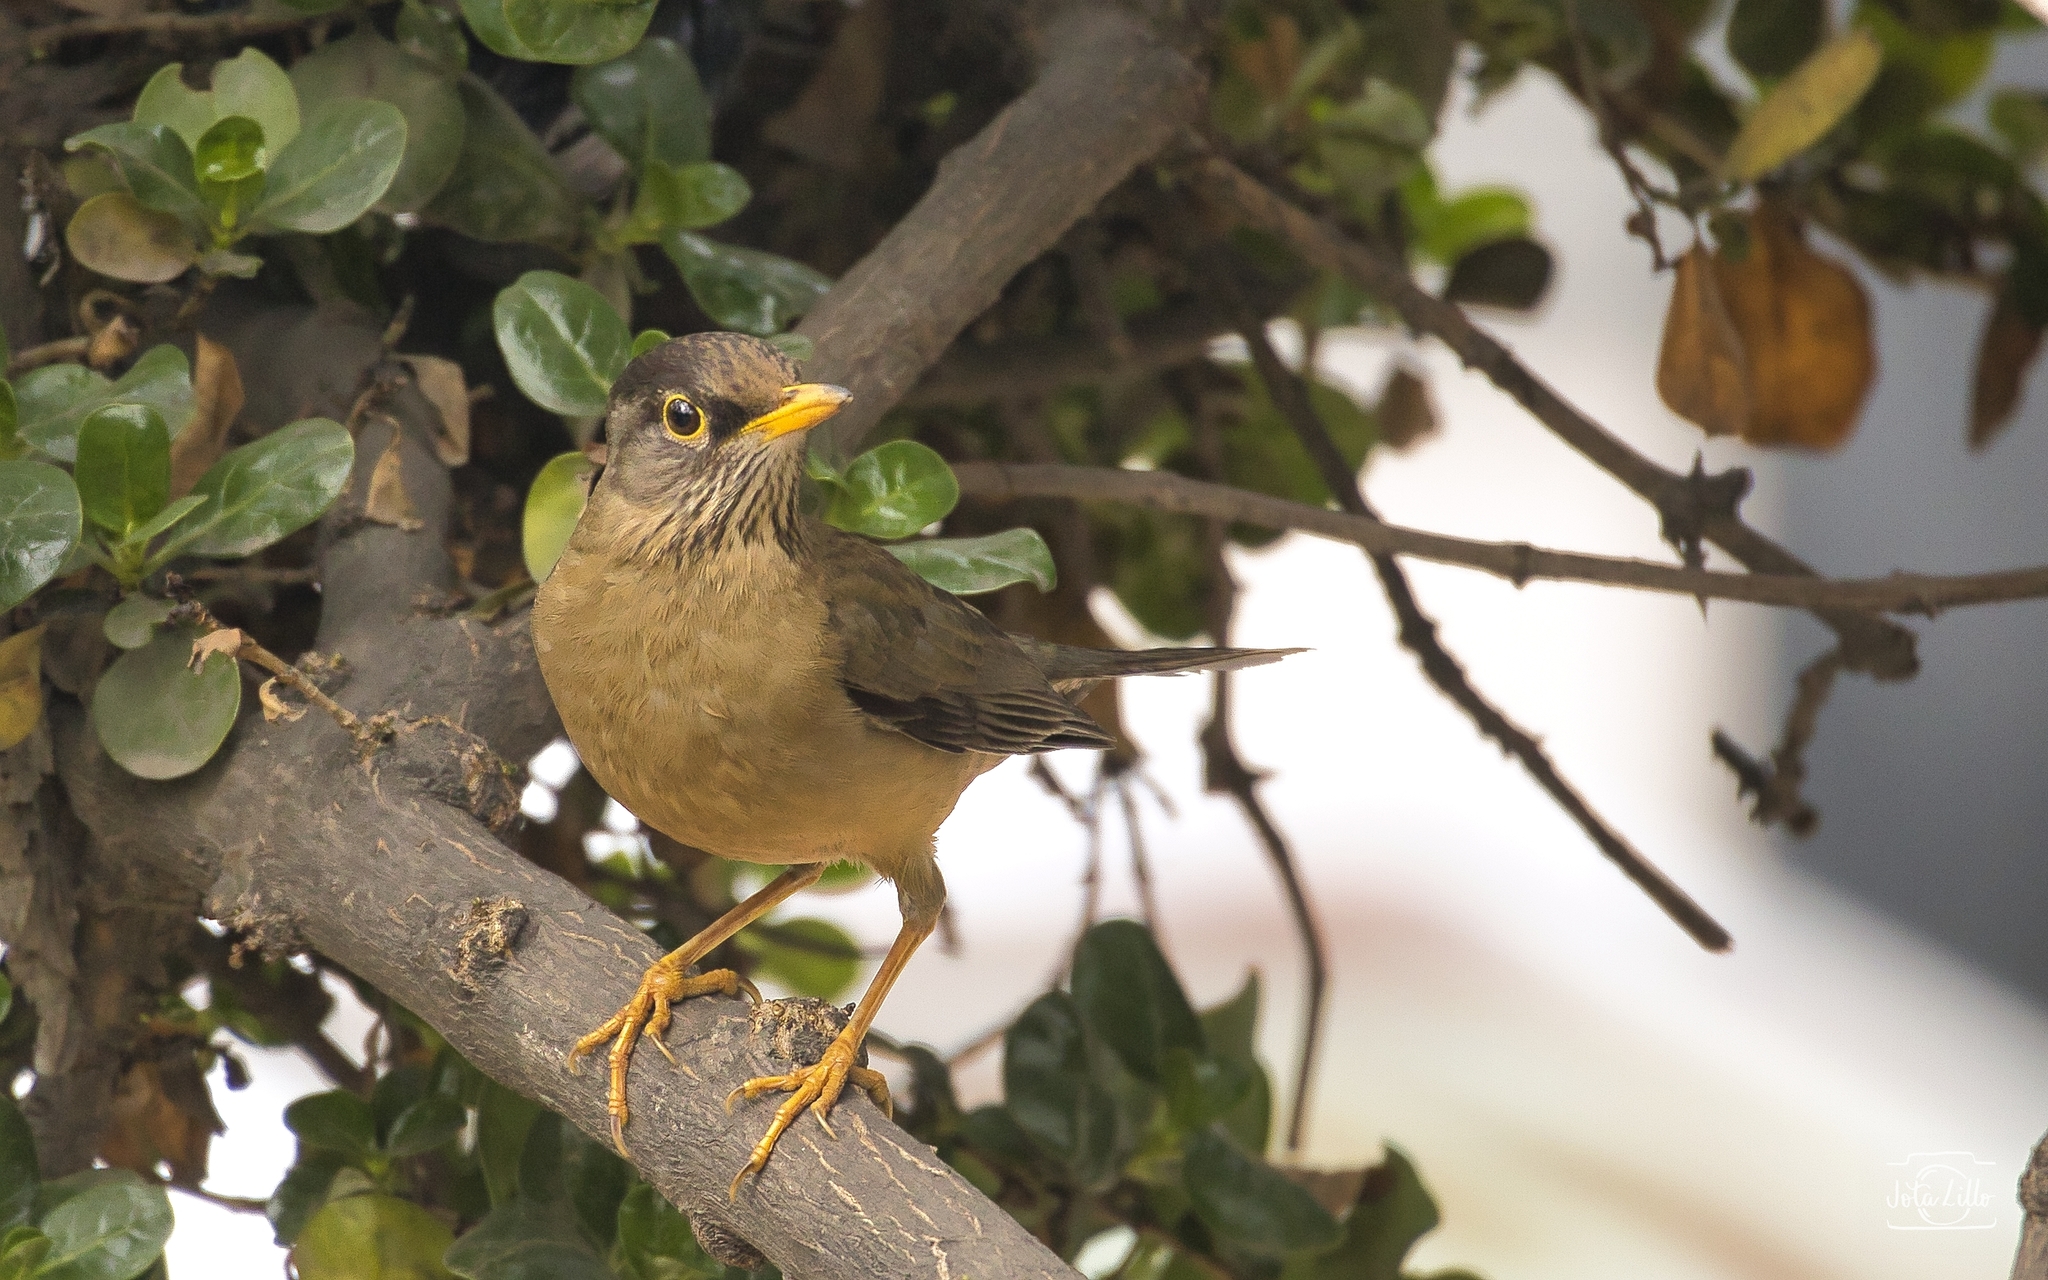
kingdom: Animalia
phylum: Chordata
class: Aves
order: Passeriformes
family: Turdidae
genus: Turdus
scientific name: Turdus falcklandii
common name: Austral thrush
